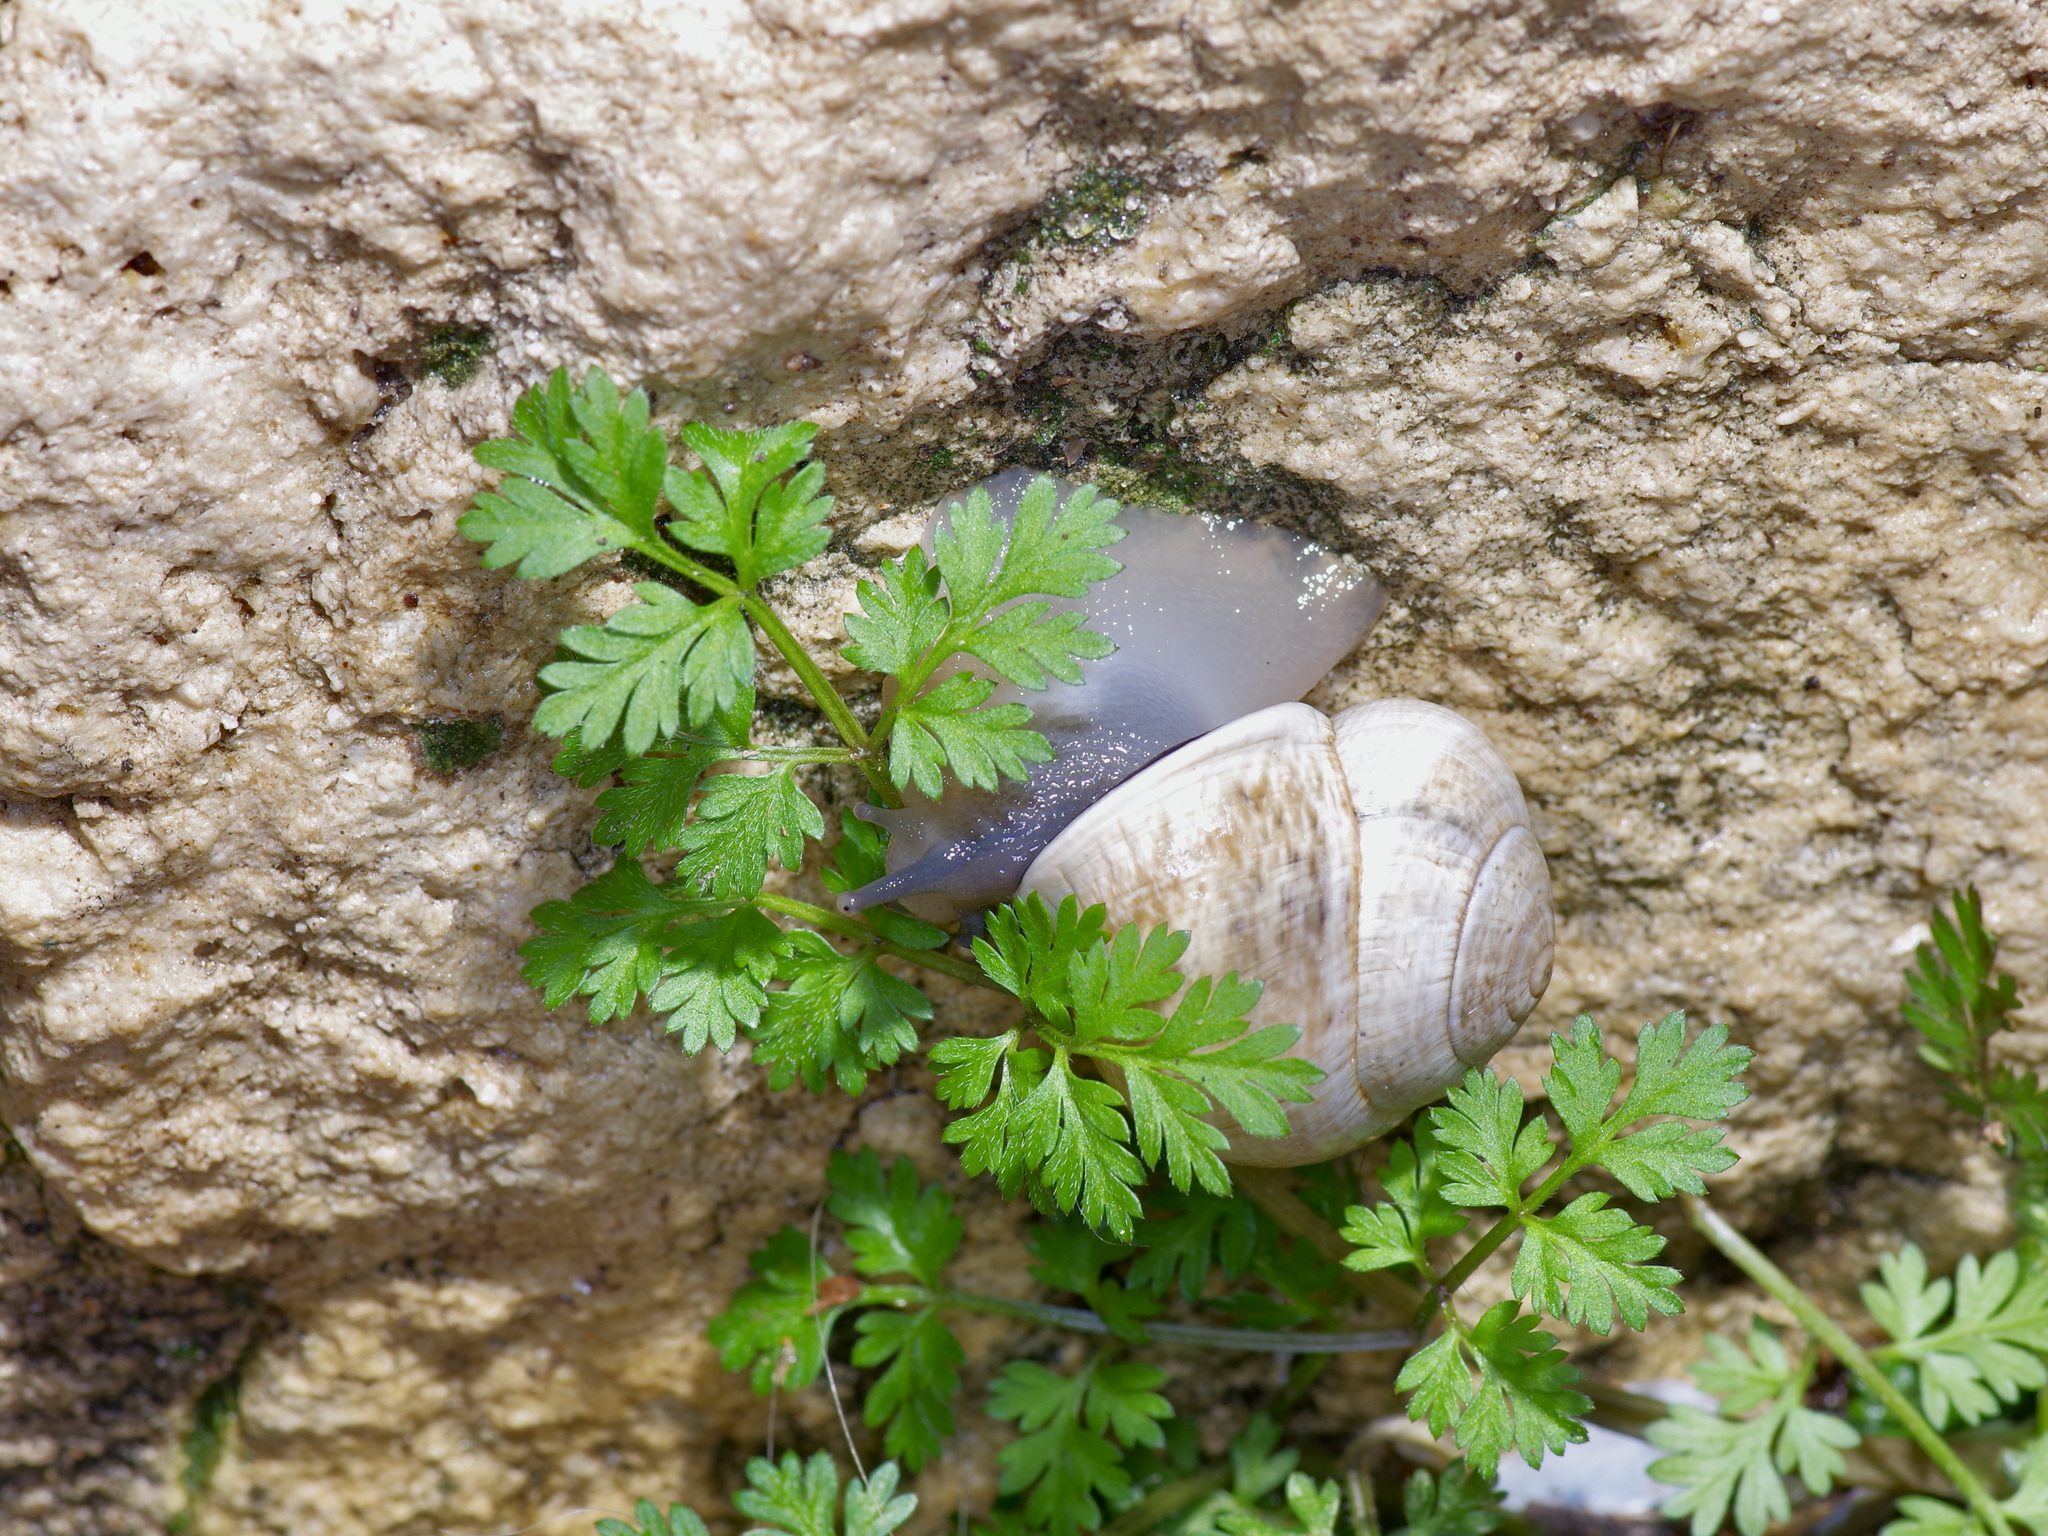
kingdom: Animalia
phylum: Mollusca
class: Gastropoda
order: Stylommatophora
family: Helicidae
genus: Otala
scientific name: Otala lactea
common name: Milk snail
